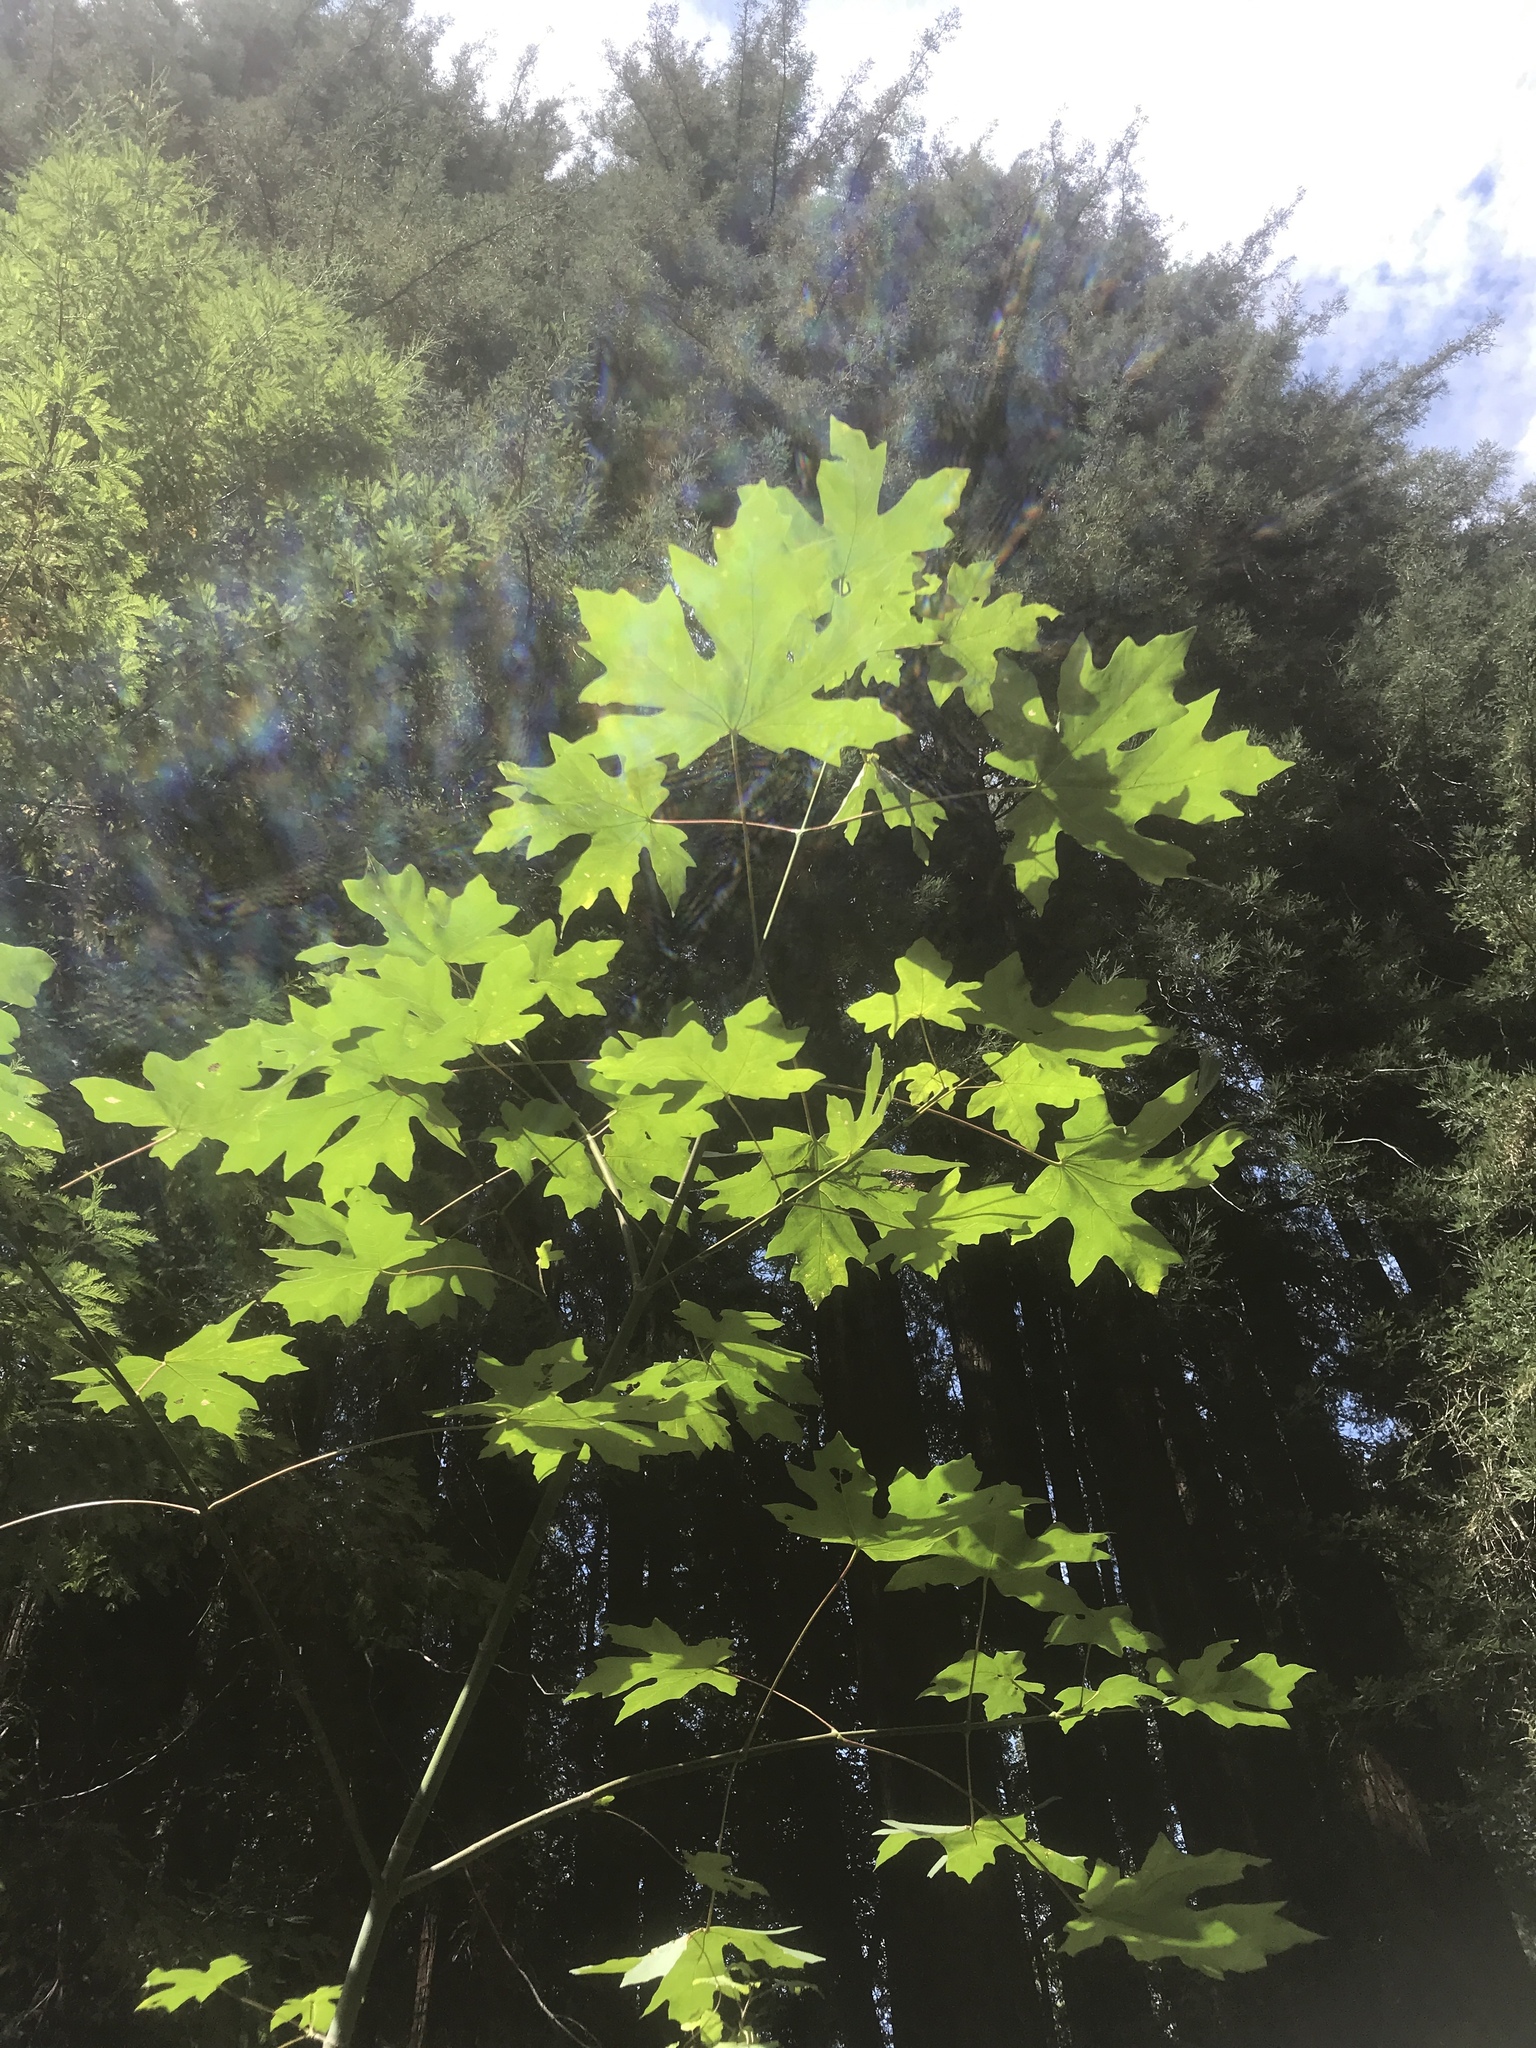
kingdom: Plantae
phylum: Tracheophyta
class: Magnoliopsida
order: Sapindales
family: Sapindaceae
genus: Acer
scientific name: Acer macrophyllum
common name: Oregon maple
